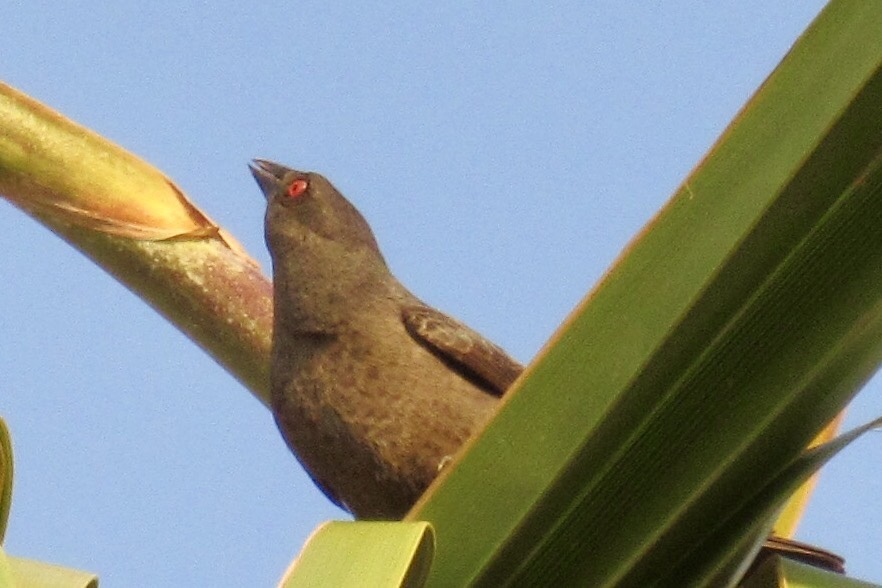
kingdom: Animalia
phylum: Chordata
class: Aves
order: Passeriformes
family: Icteridae
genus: Molothrus
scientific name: Molothrus aeneus
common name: Bronzed cowbird
